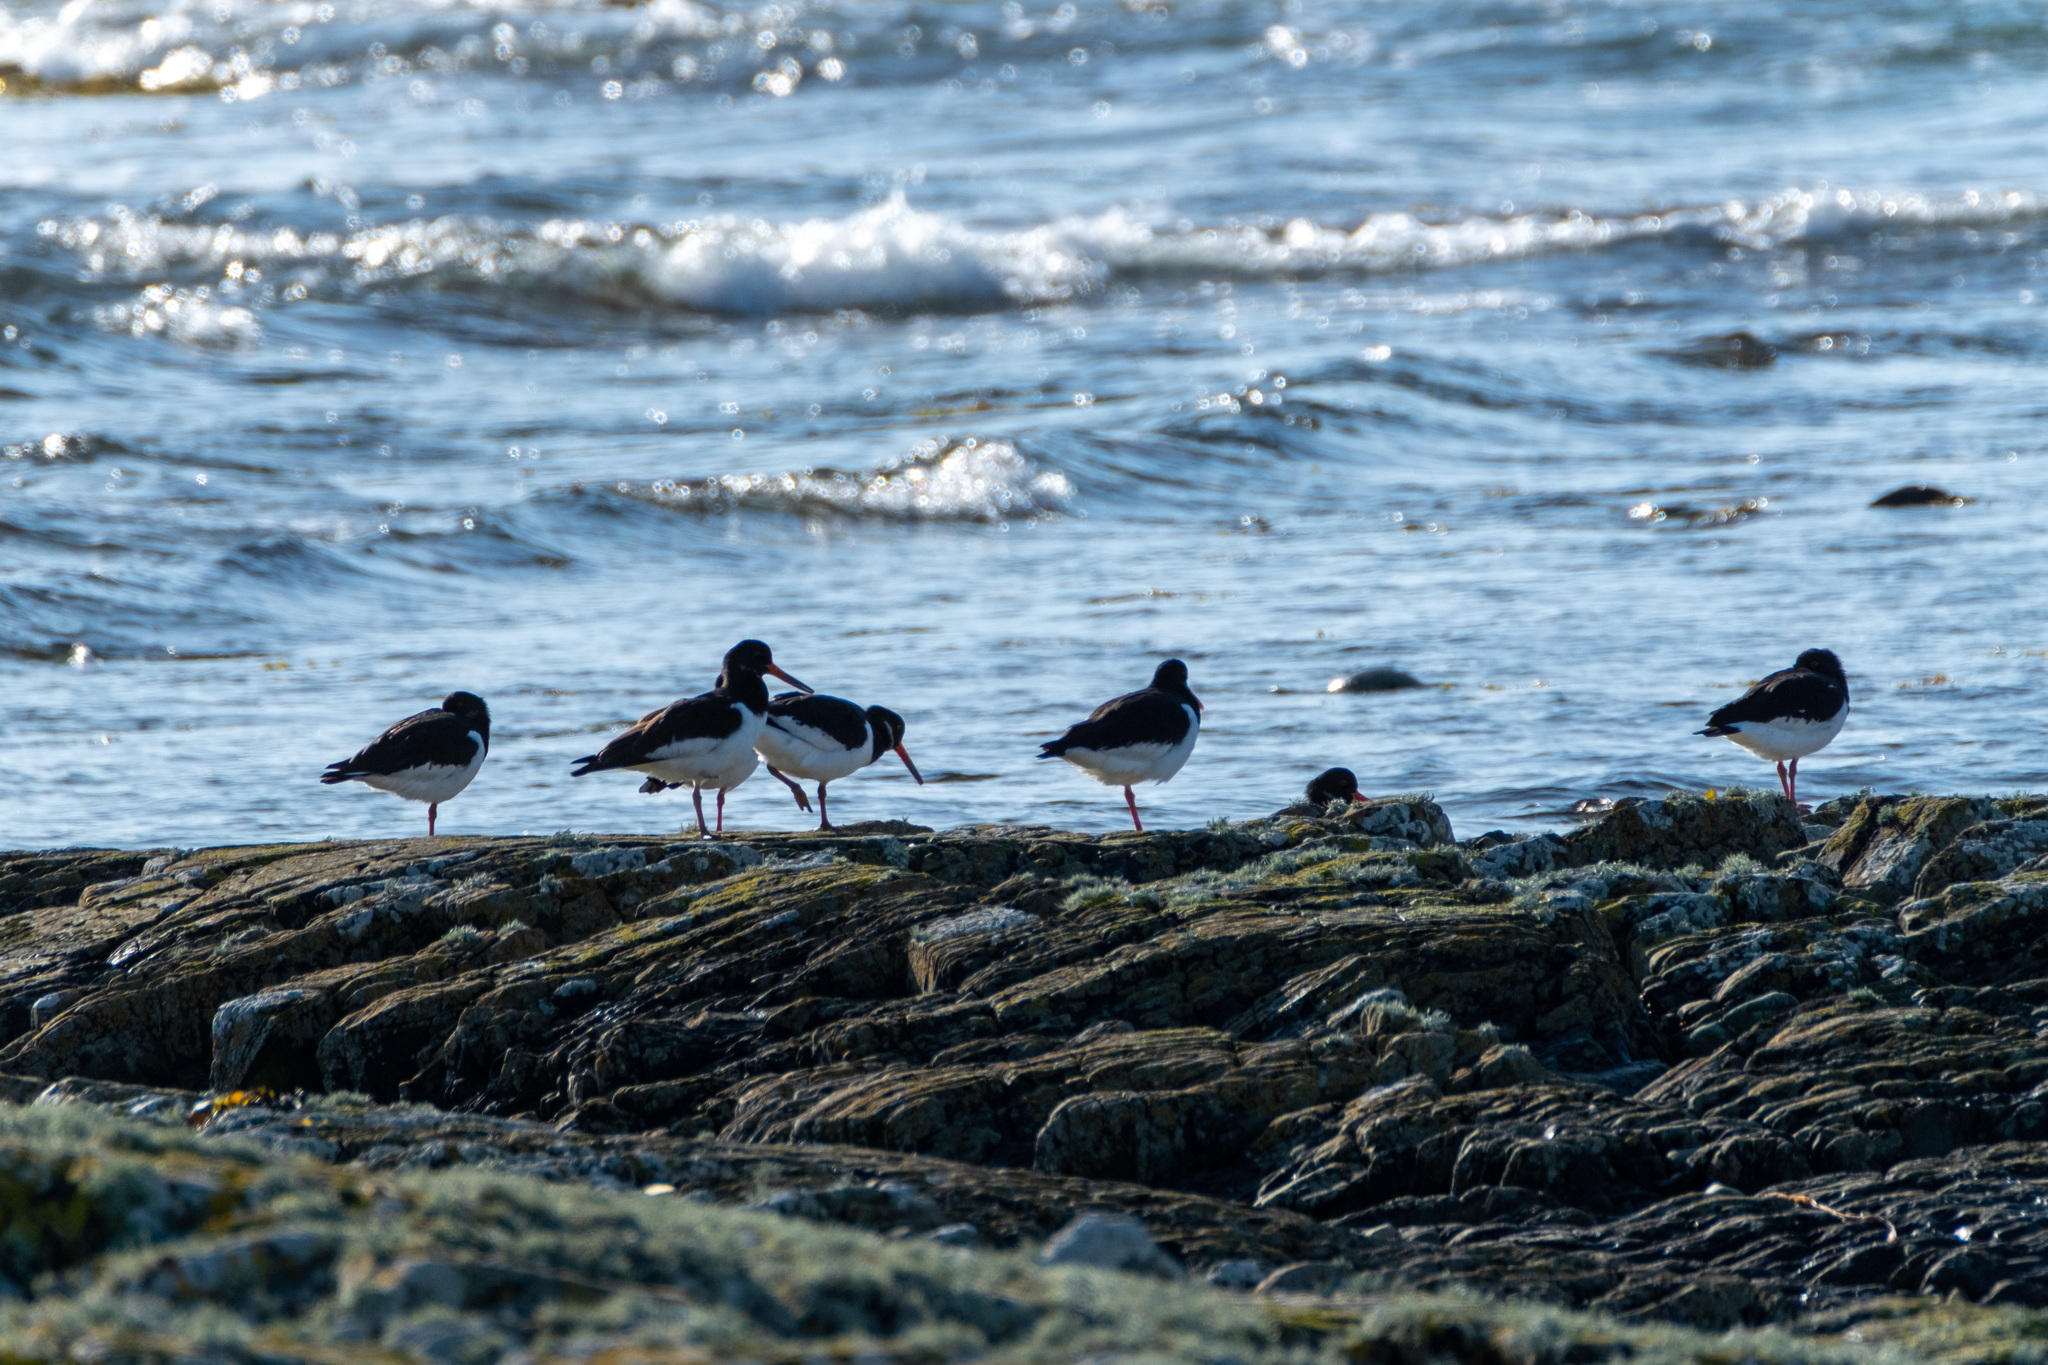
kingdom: Animalia
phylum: Chordata
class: Aves
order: Charadriiformes
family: Haematopodidae
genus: Haematopus
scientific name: Haematopus ostralegus
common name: Eurasian oystercatcher
